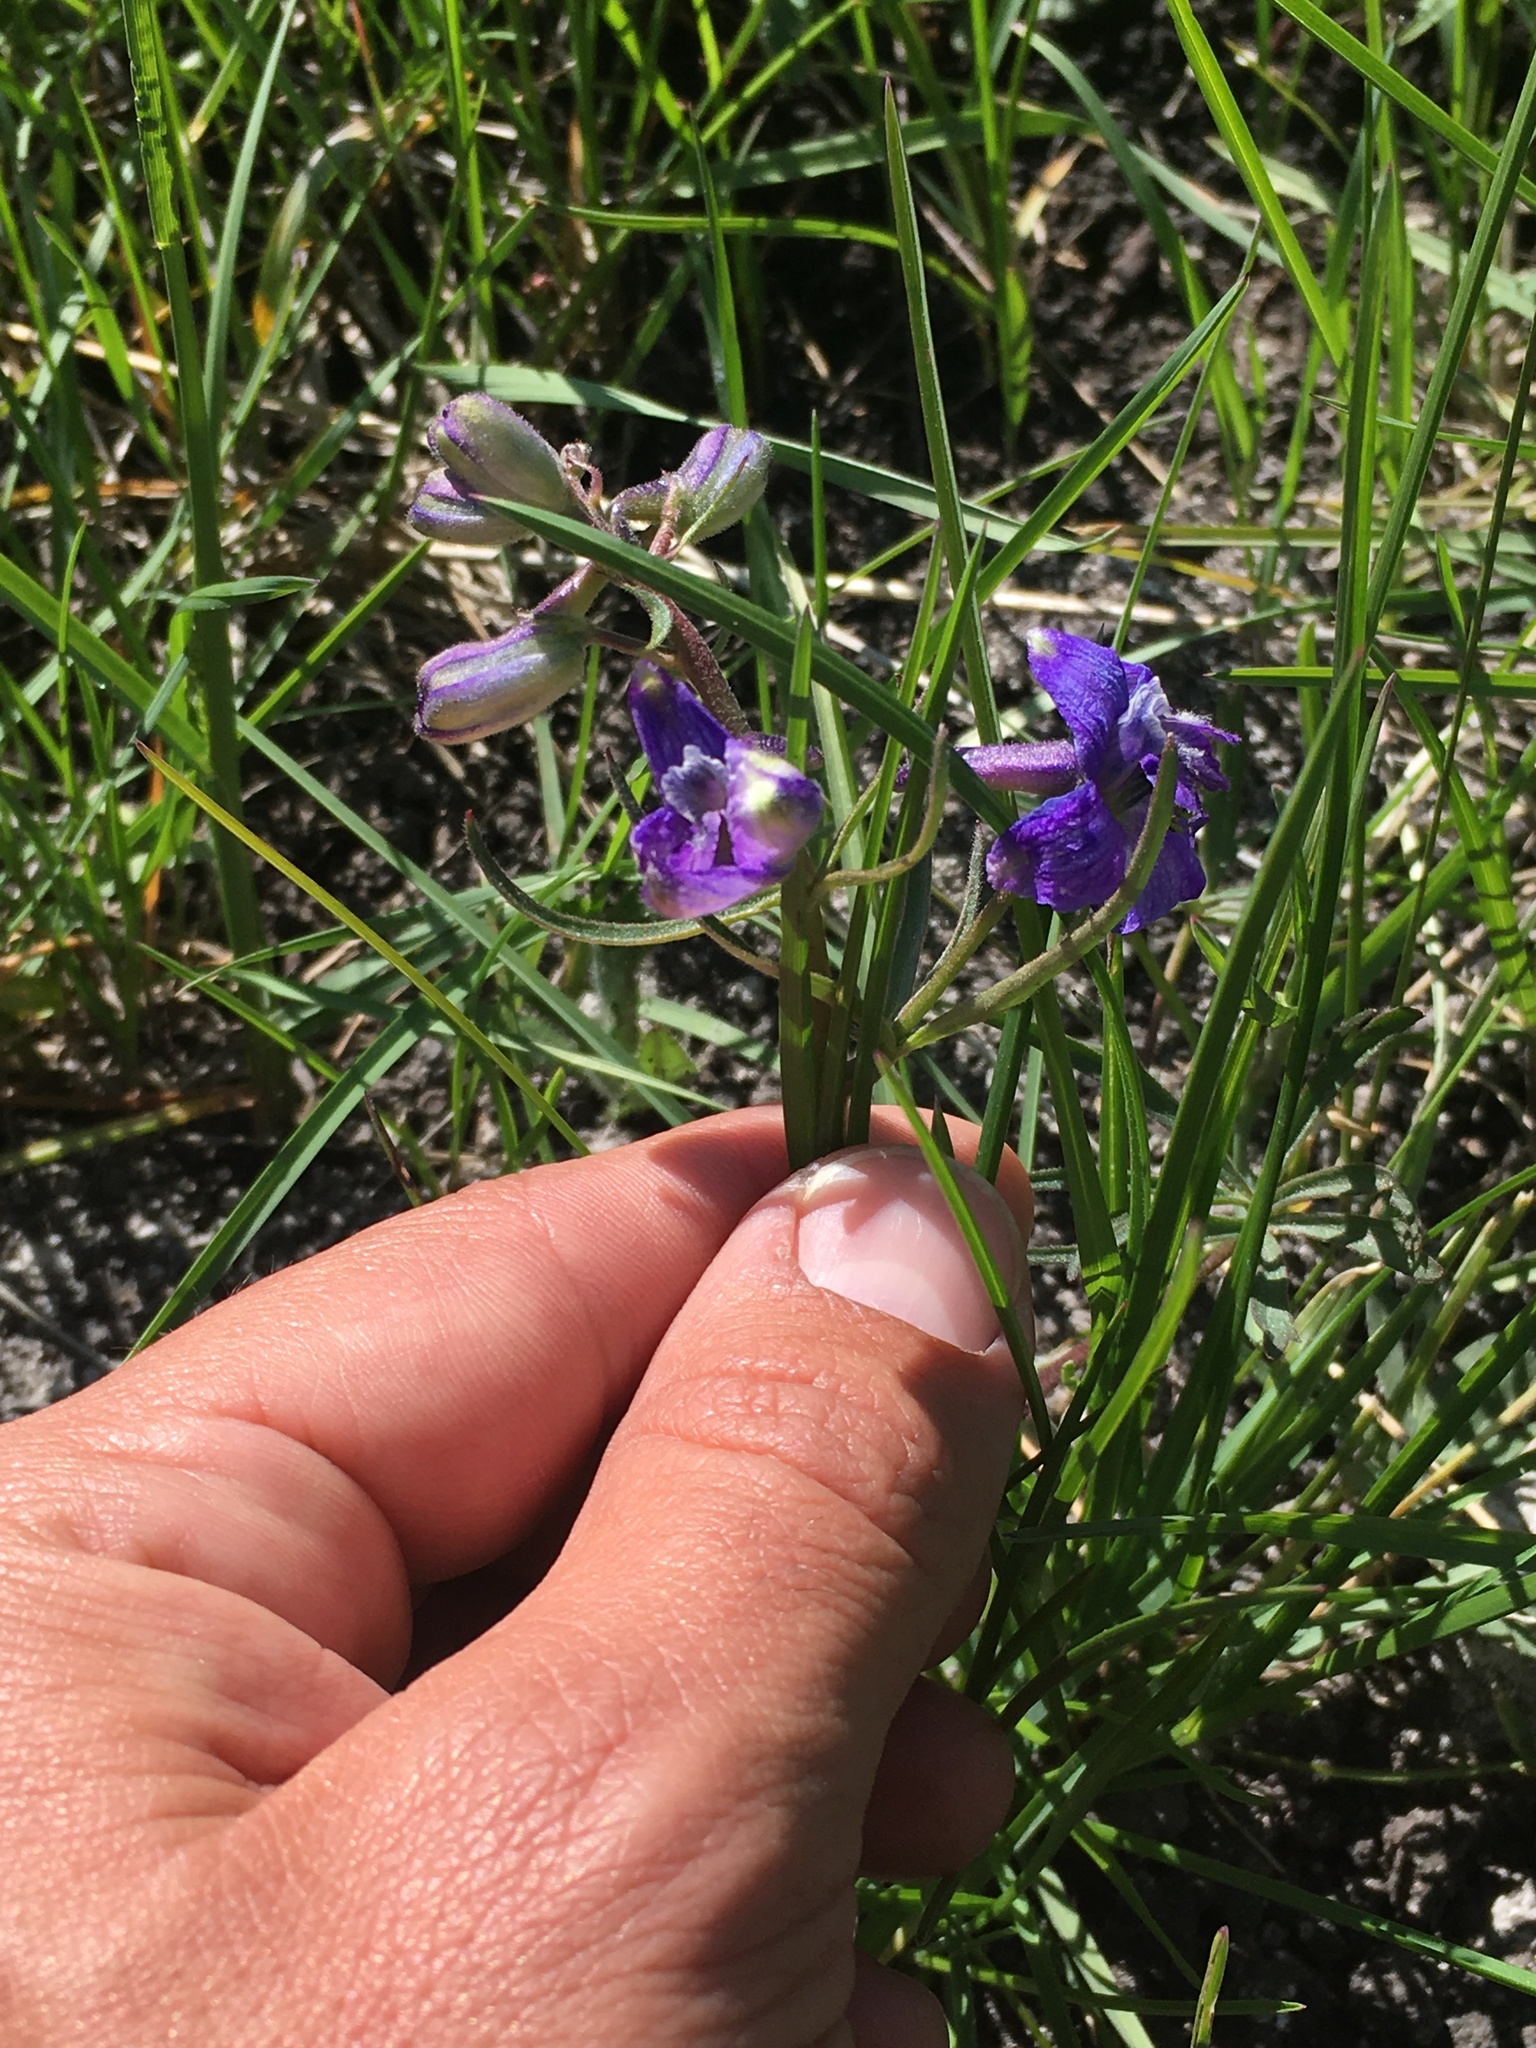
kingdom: Plantae
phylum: Tracheophyta
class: Magnoliopsida
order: Ranunculales
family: Ranunculaceae
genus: Delphinium
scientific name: Delphinium nuttallianum
